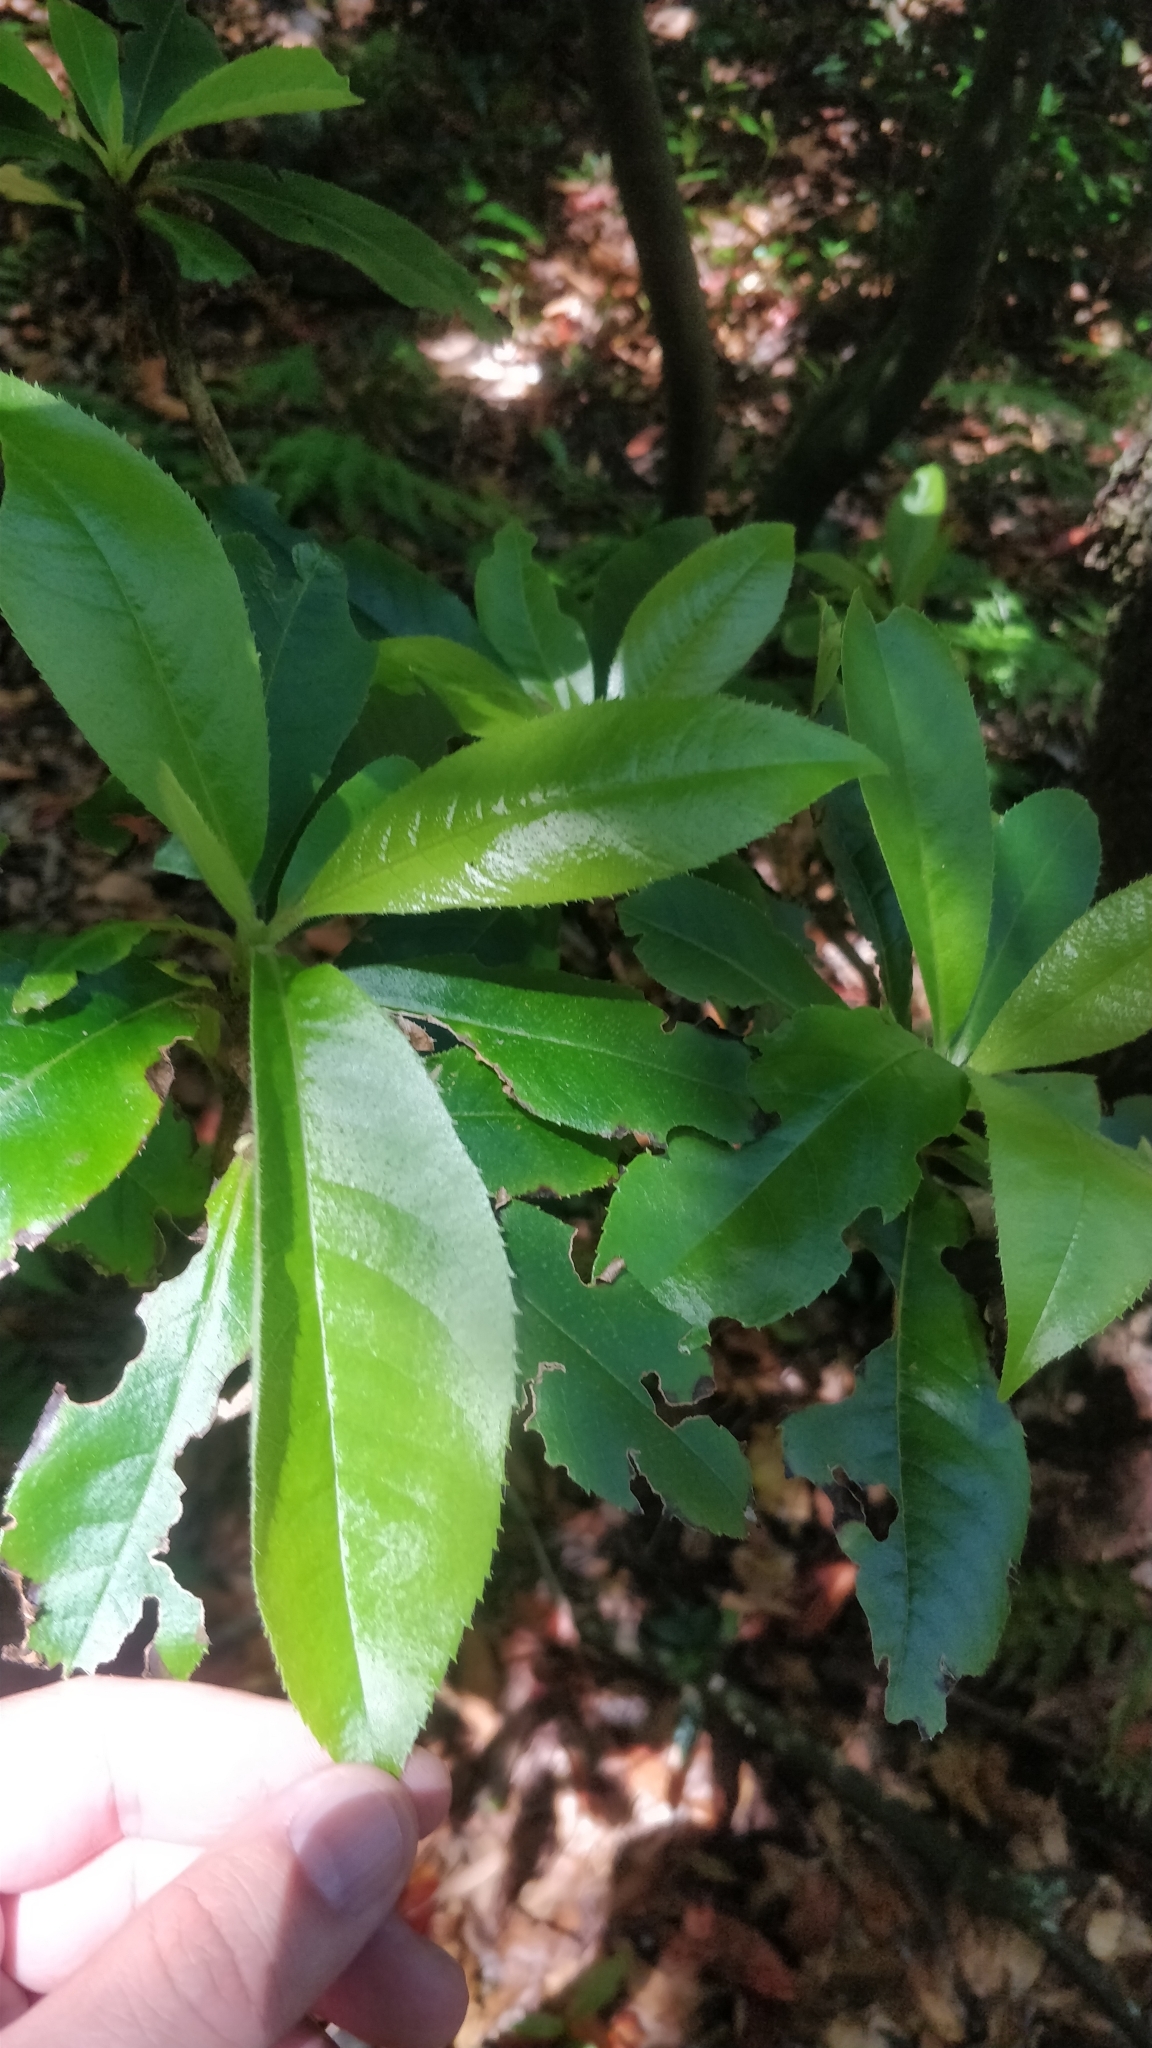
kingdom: Plantae
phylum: Tracheophyta
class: Magnoliopsida
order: Ericales
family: Clethraceae
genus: Clethra
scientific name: Clethra arborea
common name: Lily-of-the-valley-tree
